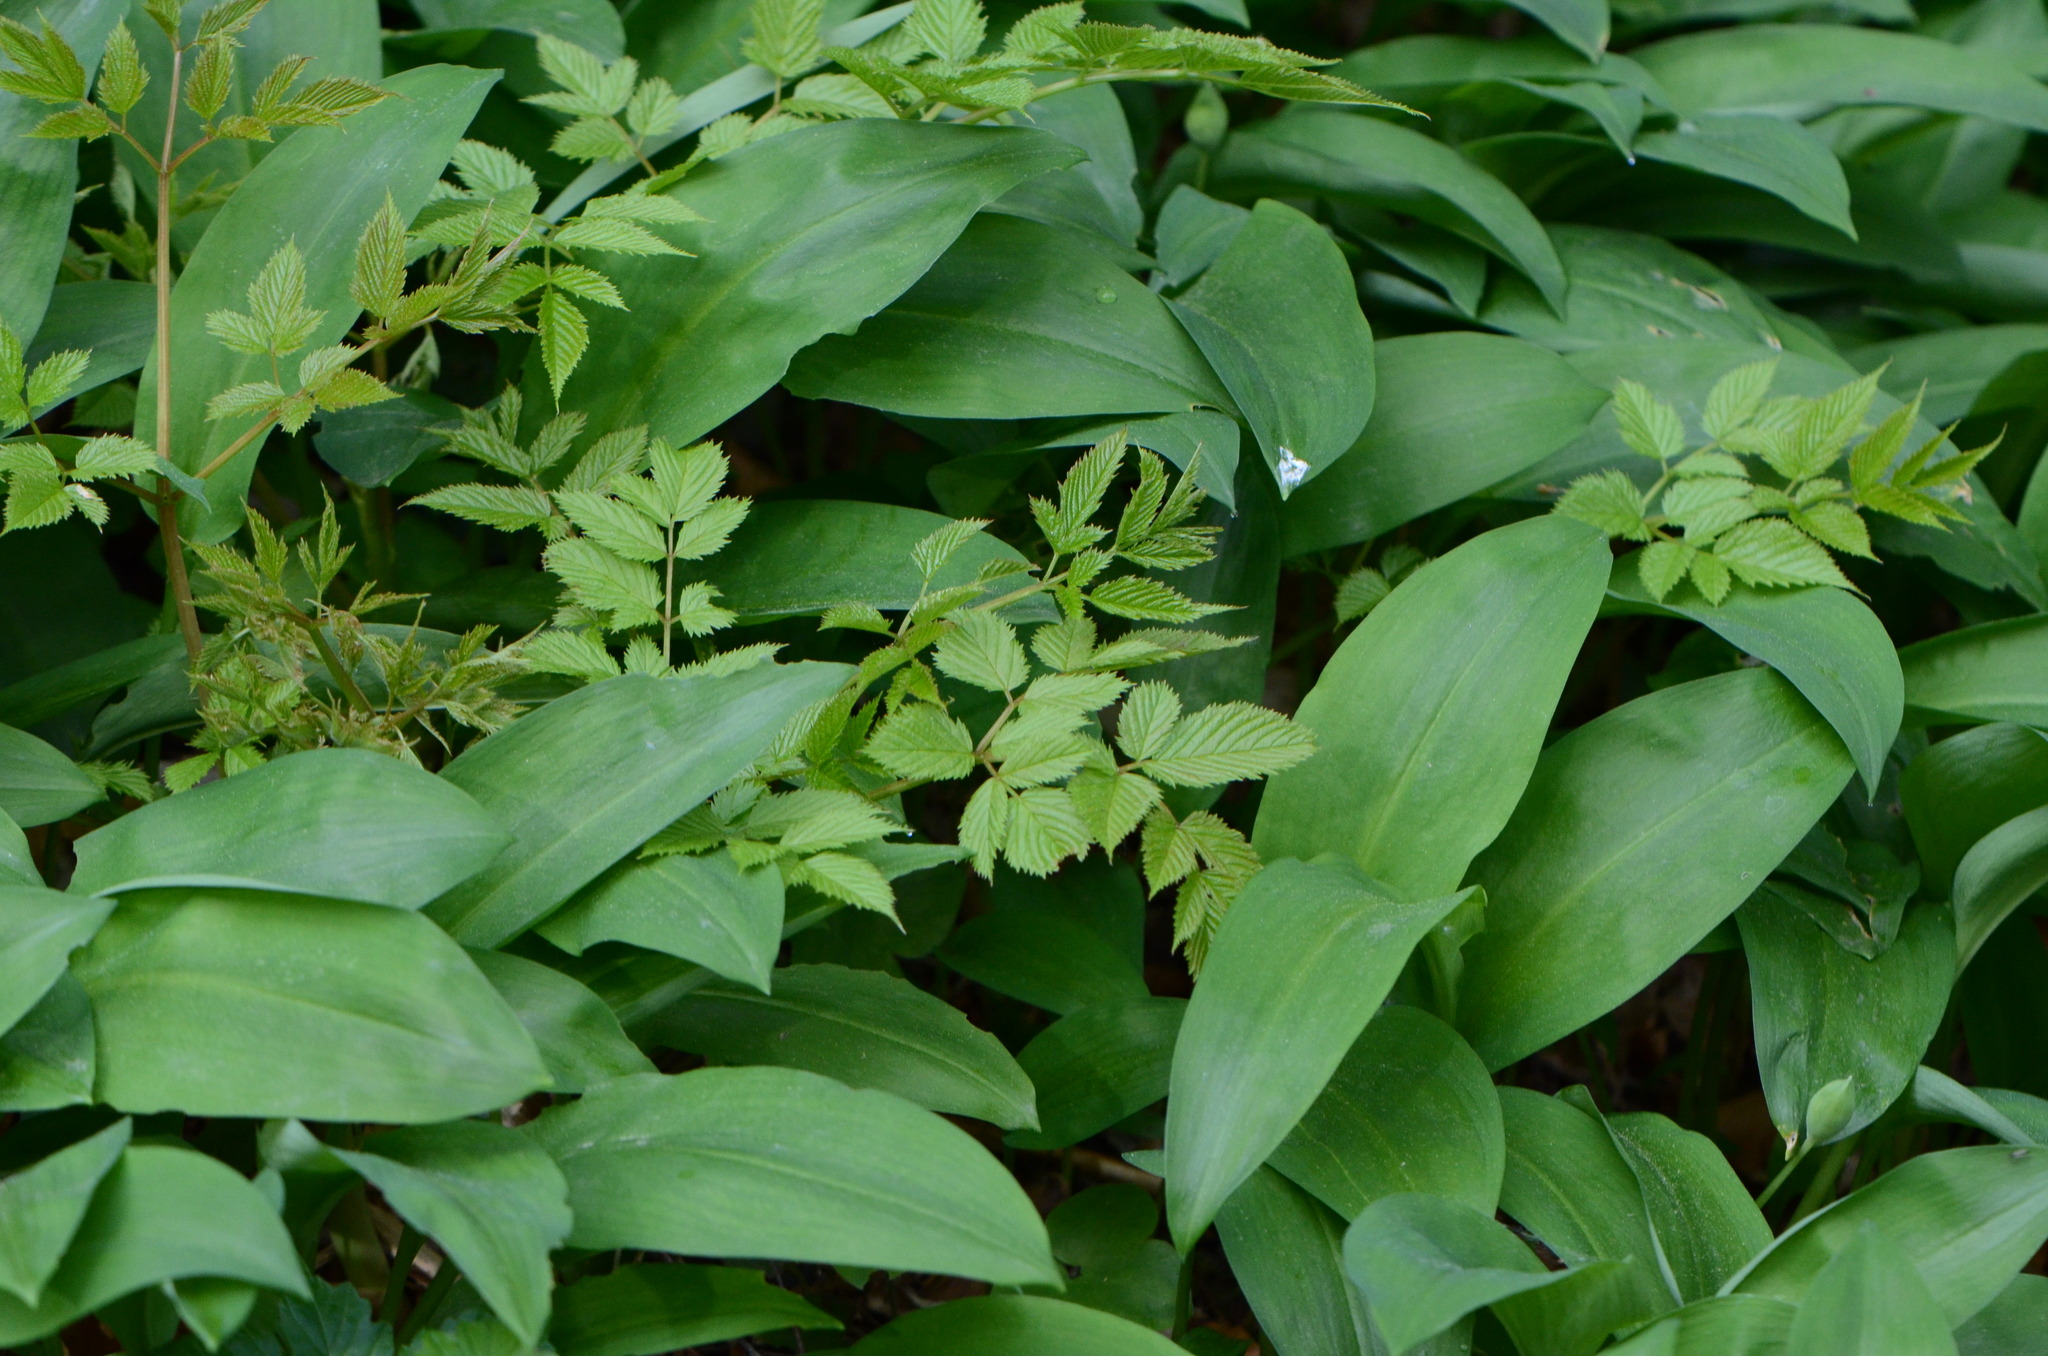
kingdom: Plantae
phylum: Tracheophyta
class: Magnoliopsida
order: Rosales
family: Rosaceae
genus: Aruncus
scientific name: Aruncus dioicus
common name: Buck's-beard
